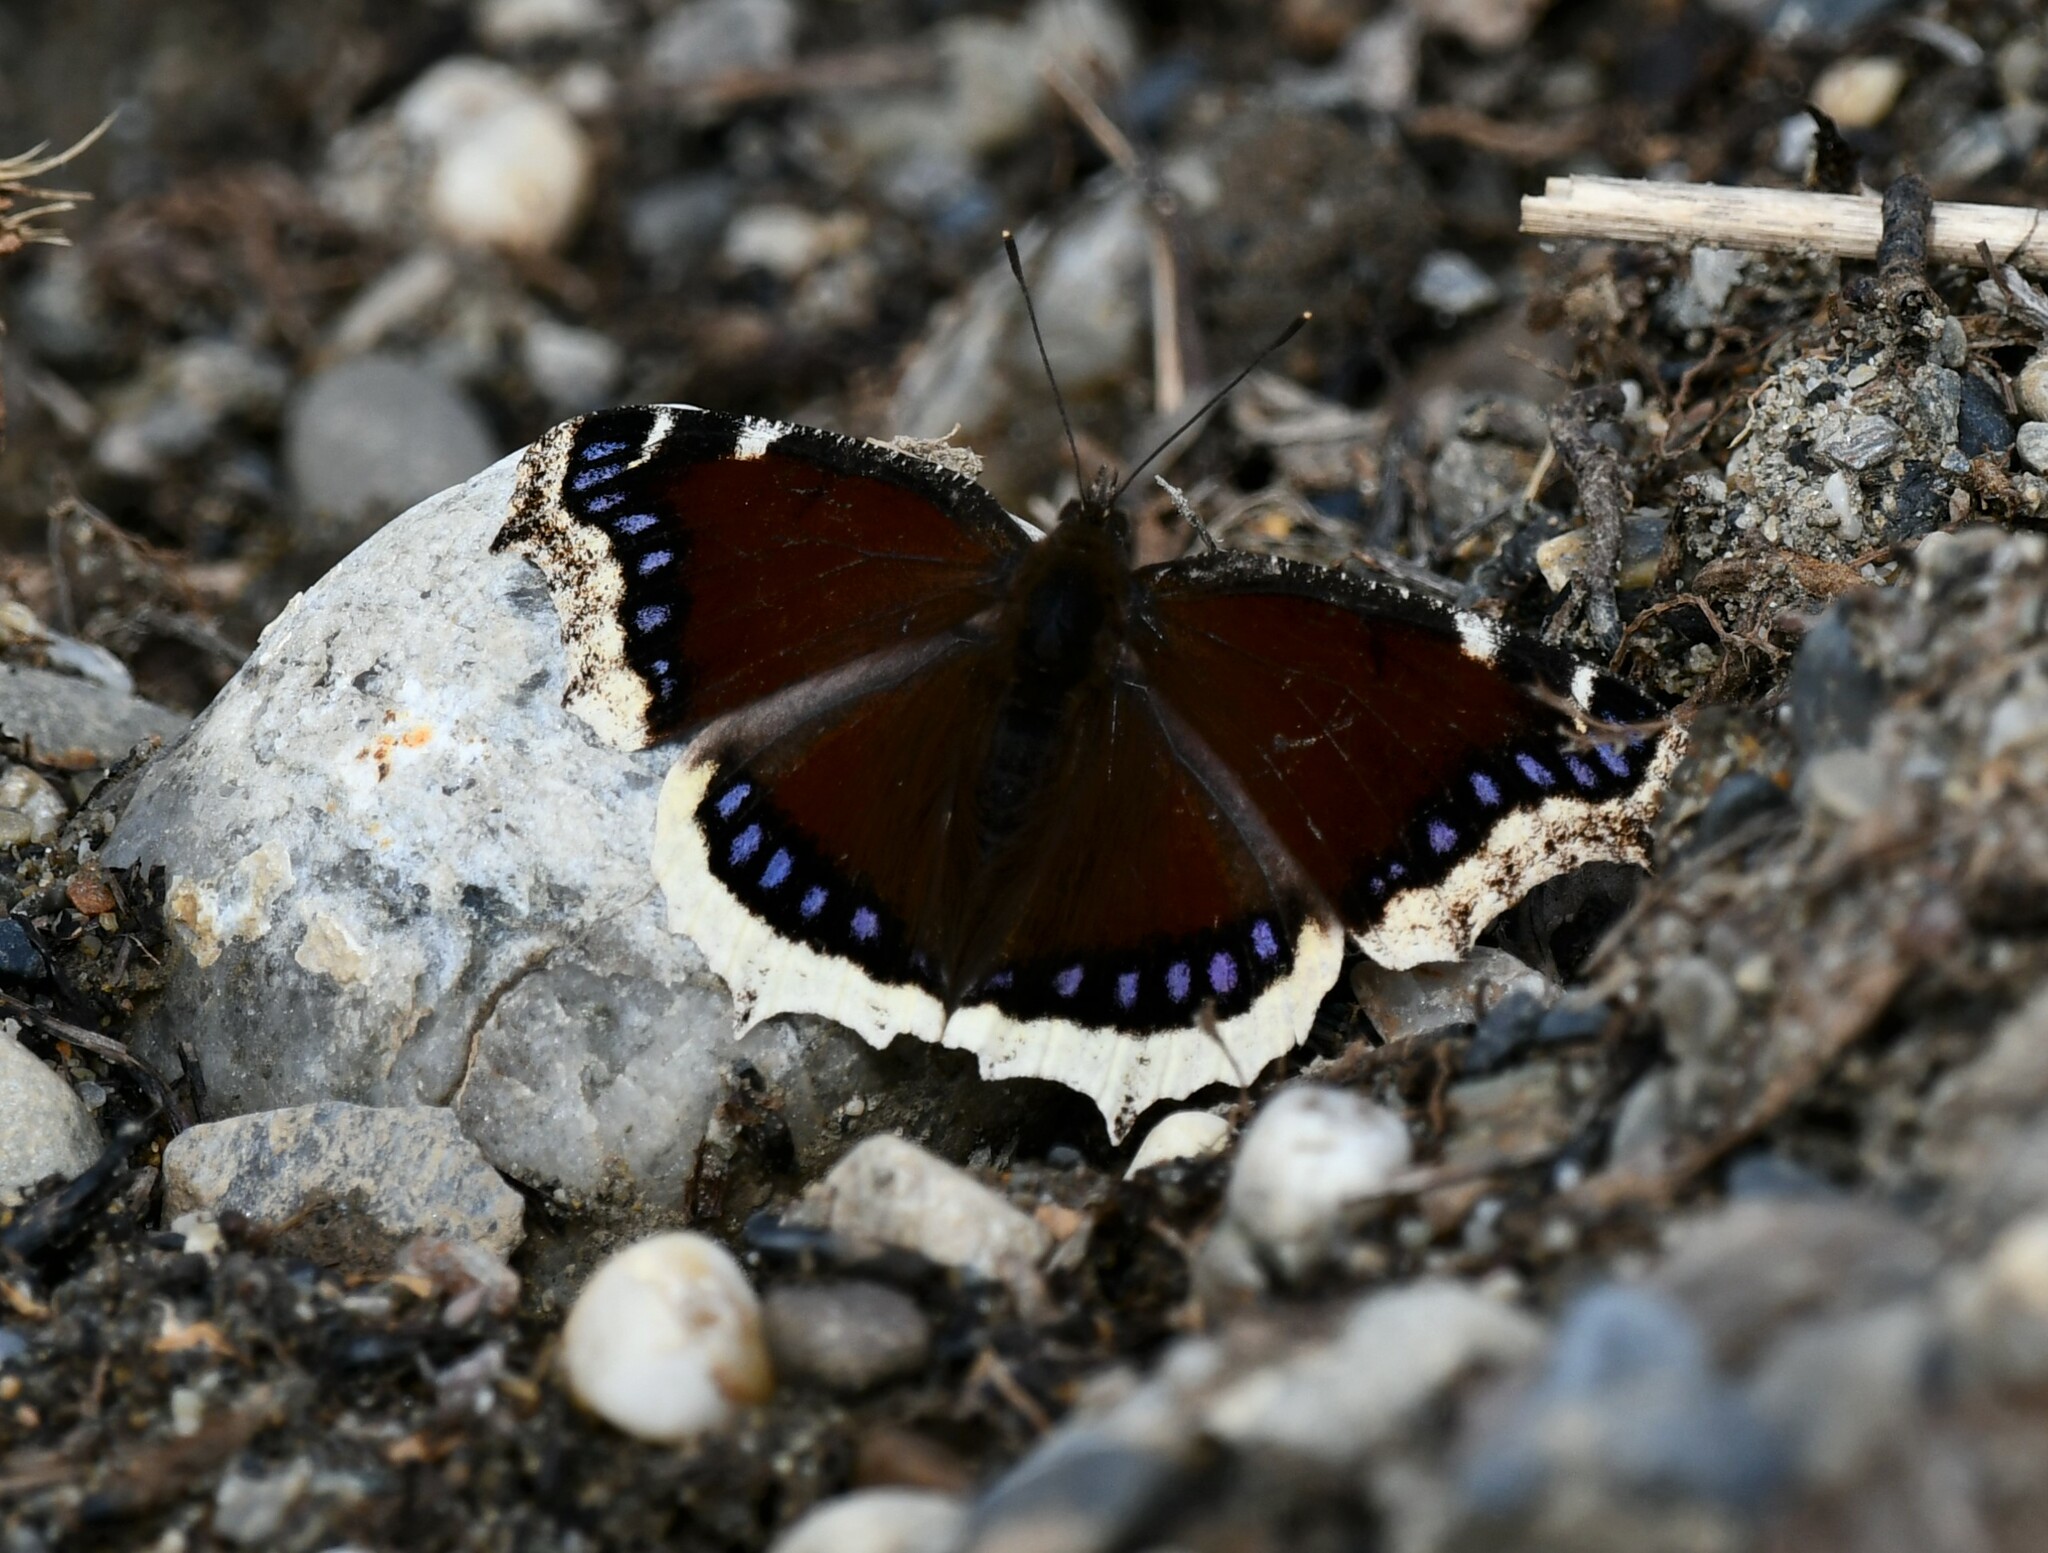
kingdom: Animalia
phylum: Arthropoda
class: Insecta
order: Lepidoptera
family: Nymphalidae
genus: Nymphalis
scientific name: Nymphalis antiopa
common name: Camberwell beauty
